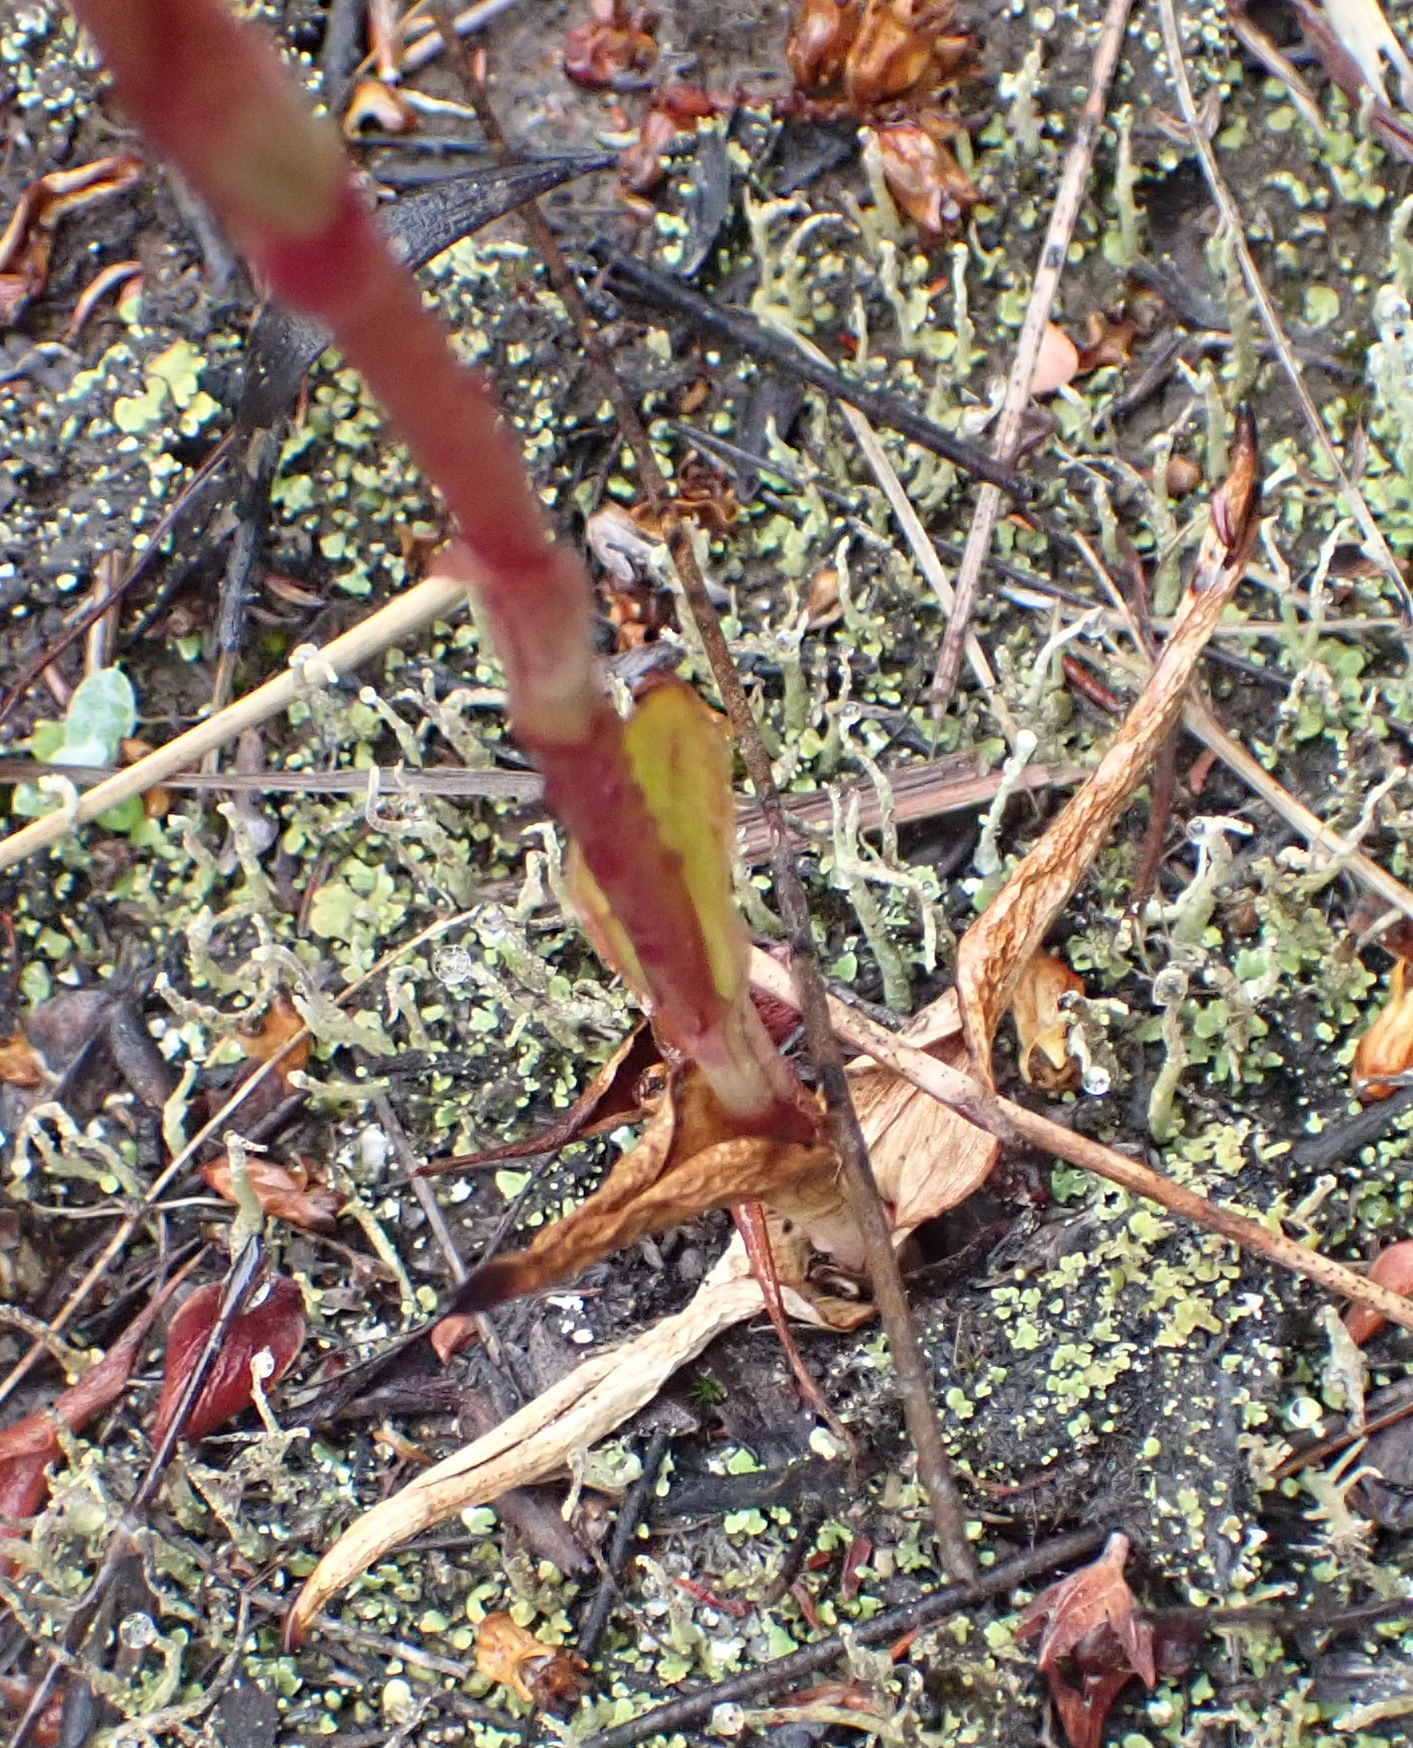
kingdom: Plantae
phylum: Tracheophyta
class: Liliopsida
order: Asparagales
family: Orchidaceae
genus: Satyrium
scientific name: Satyrium stenopetalum
